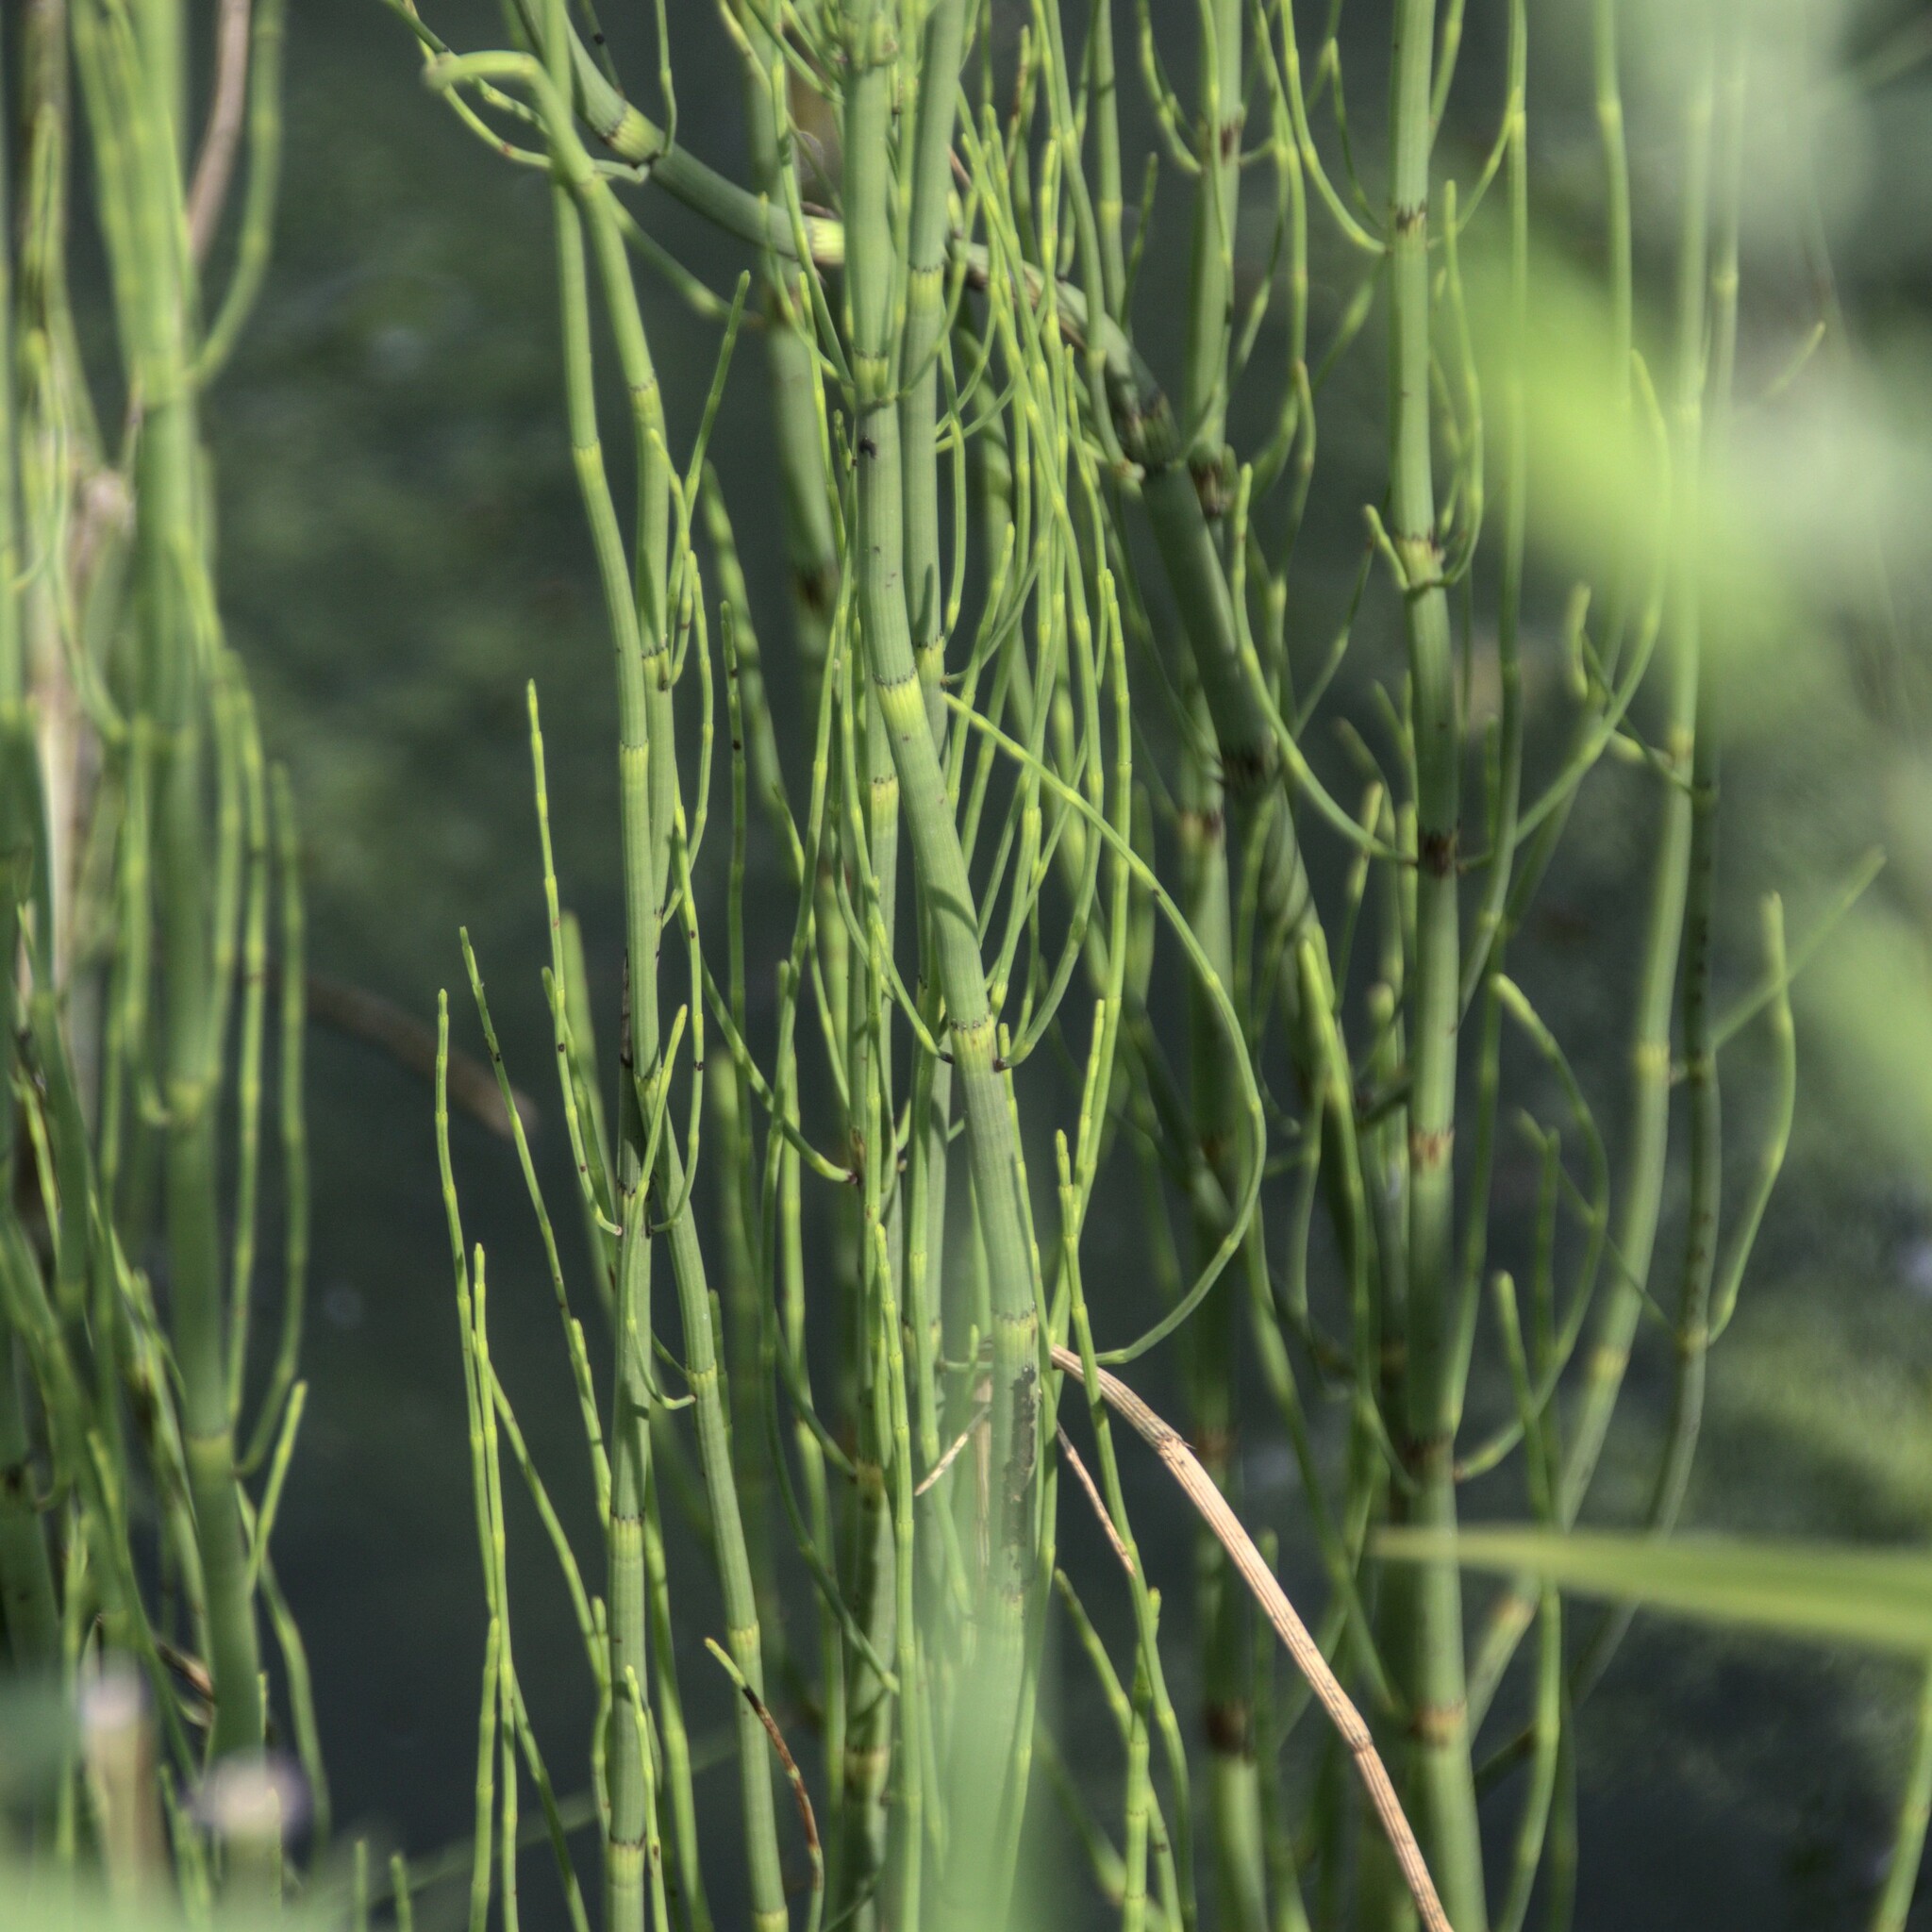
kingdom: Plantae
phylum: Tracheophyta
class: Polypodiopsida
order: Equisetales
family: Equisetaceae
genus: Equisetum
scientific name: Equisetum fluviatile
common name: Water horsetail
